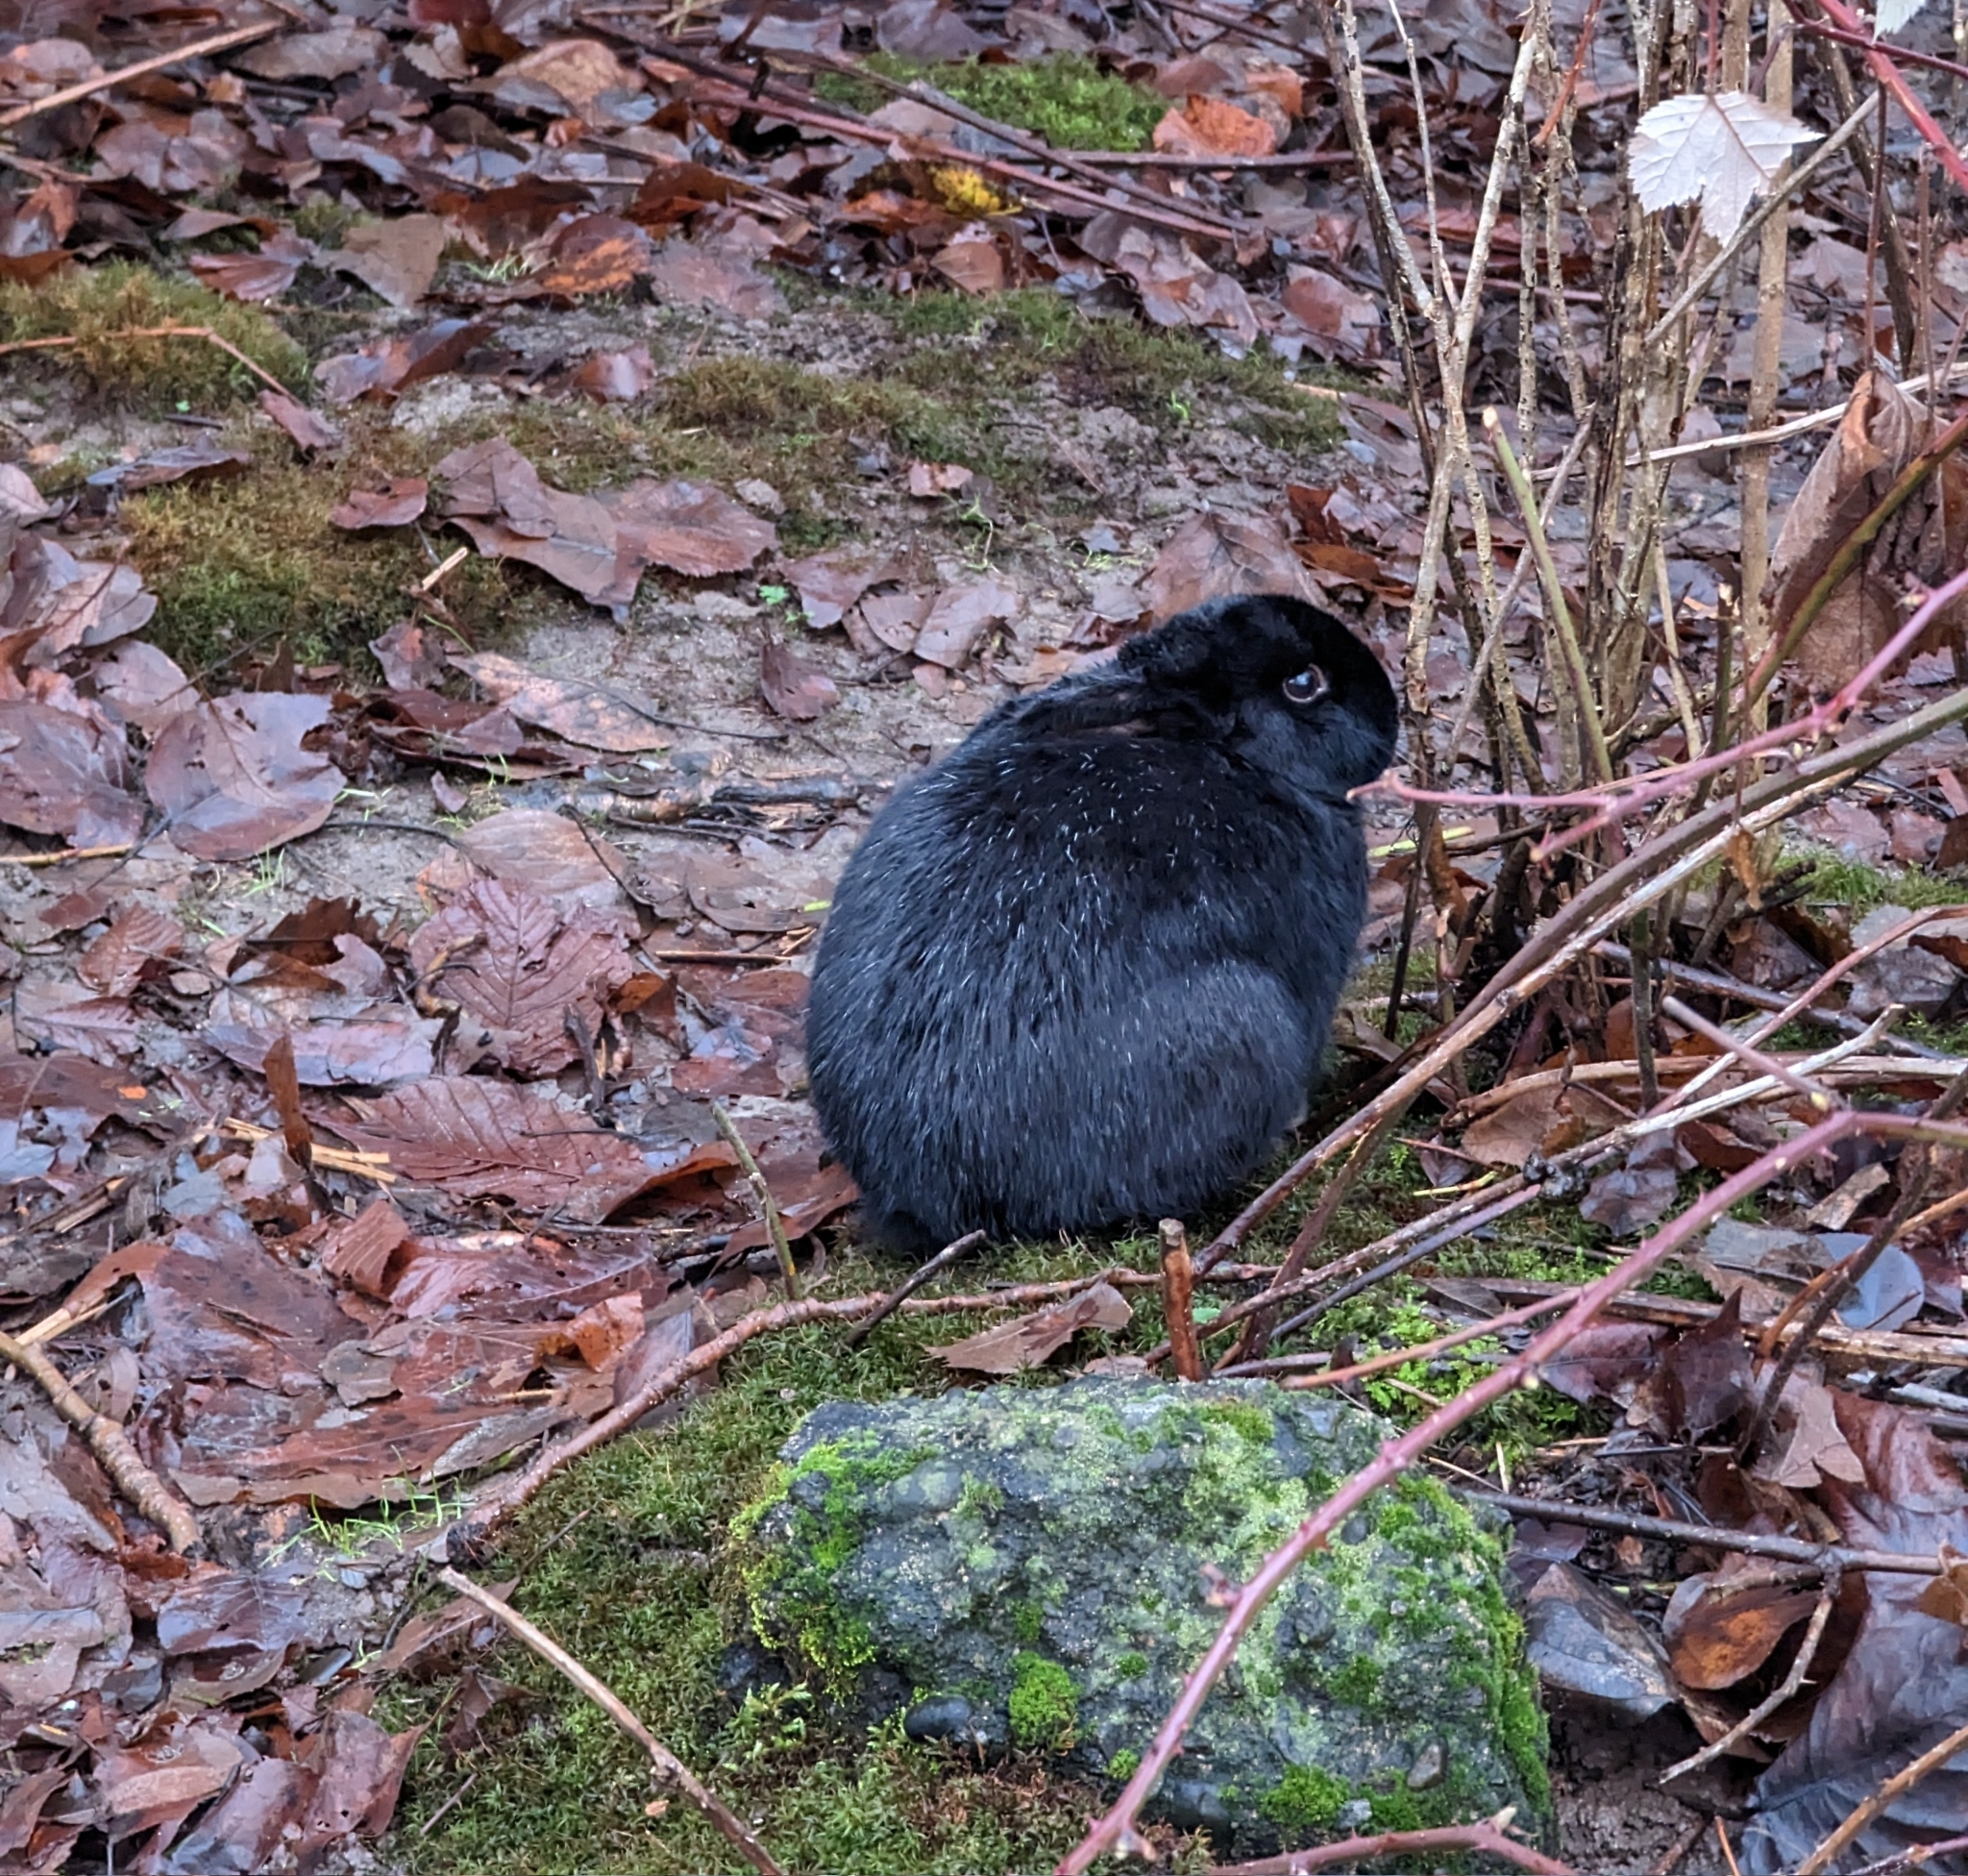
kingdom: Animalia
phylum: Chordata
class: Mammalia
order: Lagomorpha
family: Leporidae
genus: Oryctolagus
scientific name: Oryctolagus cuniculus
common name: European rabbit
